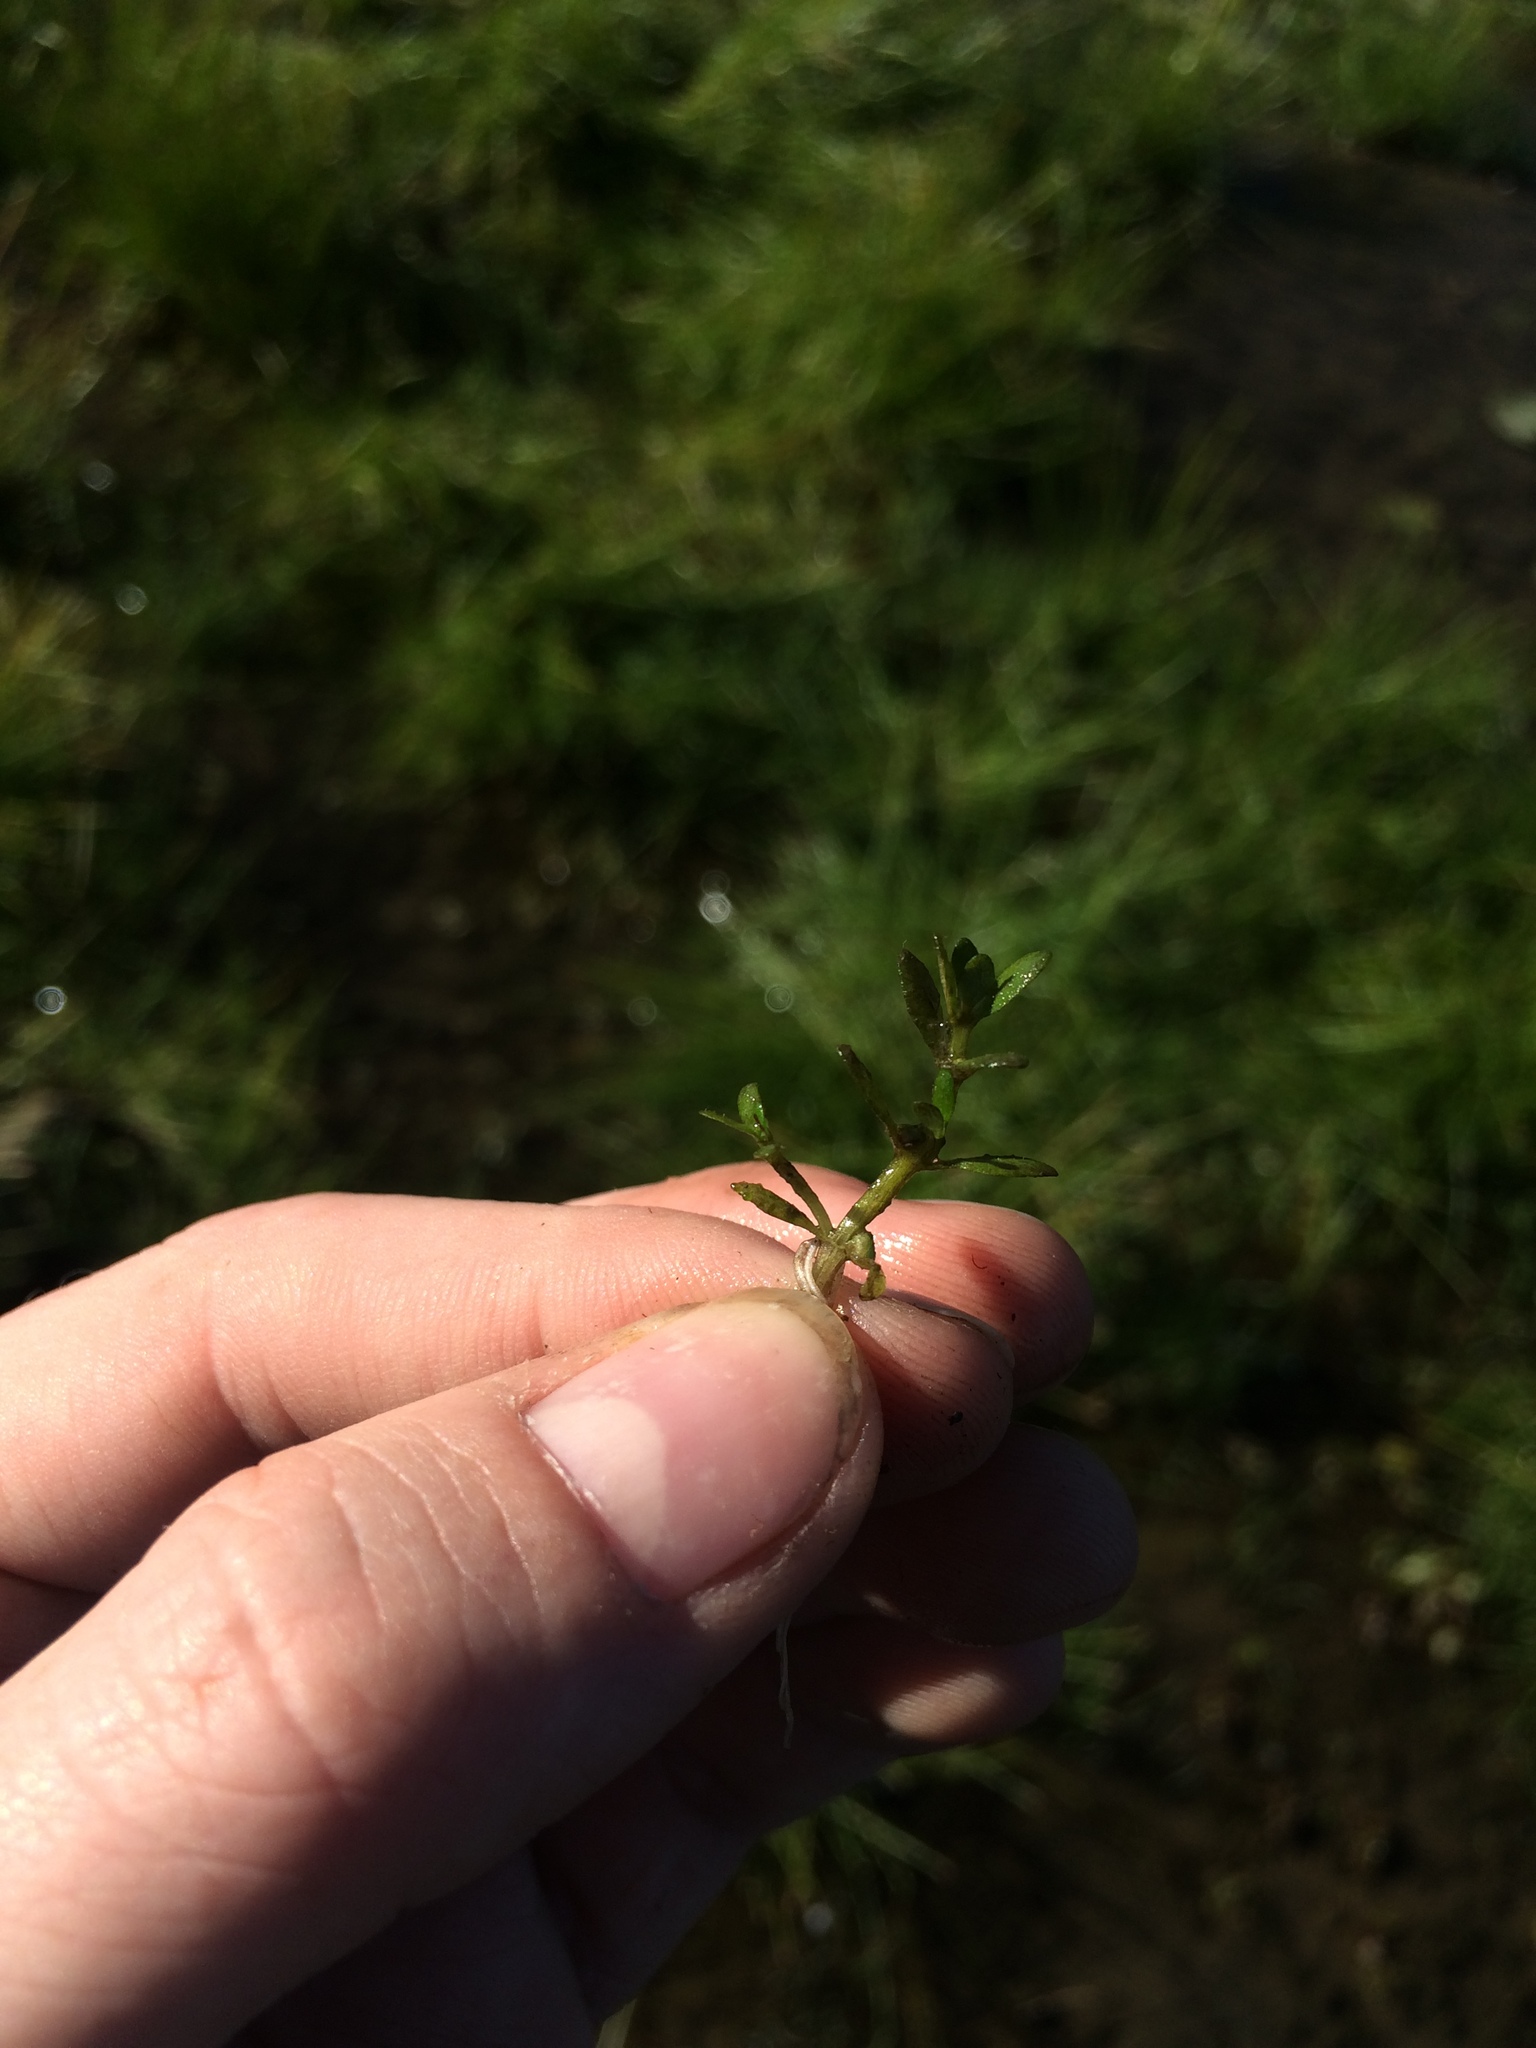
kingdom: Plantae
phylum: Tracheophyta
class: Magnoliopsida
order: Malpighiales
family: Elatinaceae
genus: Elatine
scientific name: Elatine americana
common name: American waterwort
